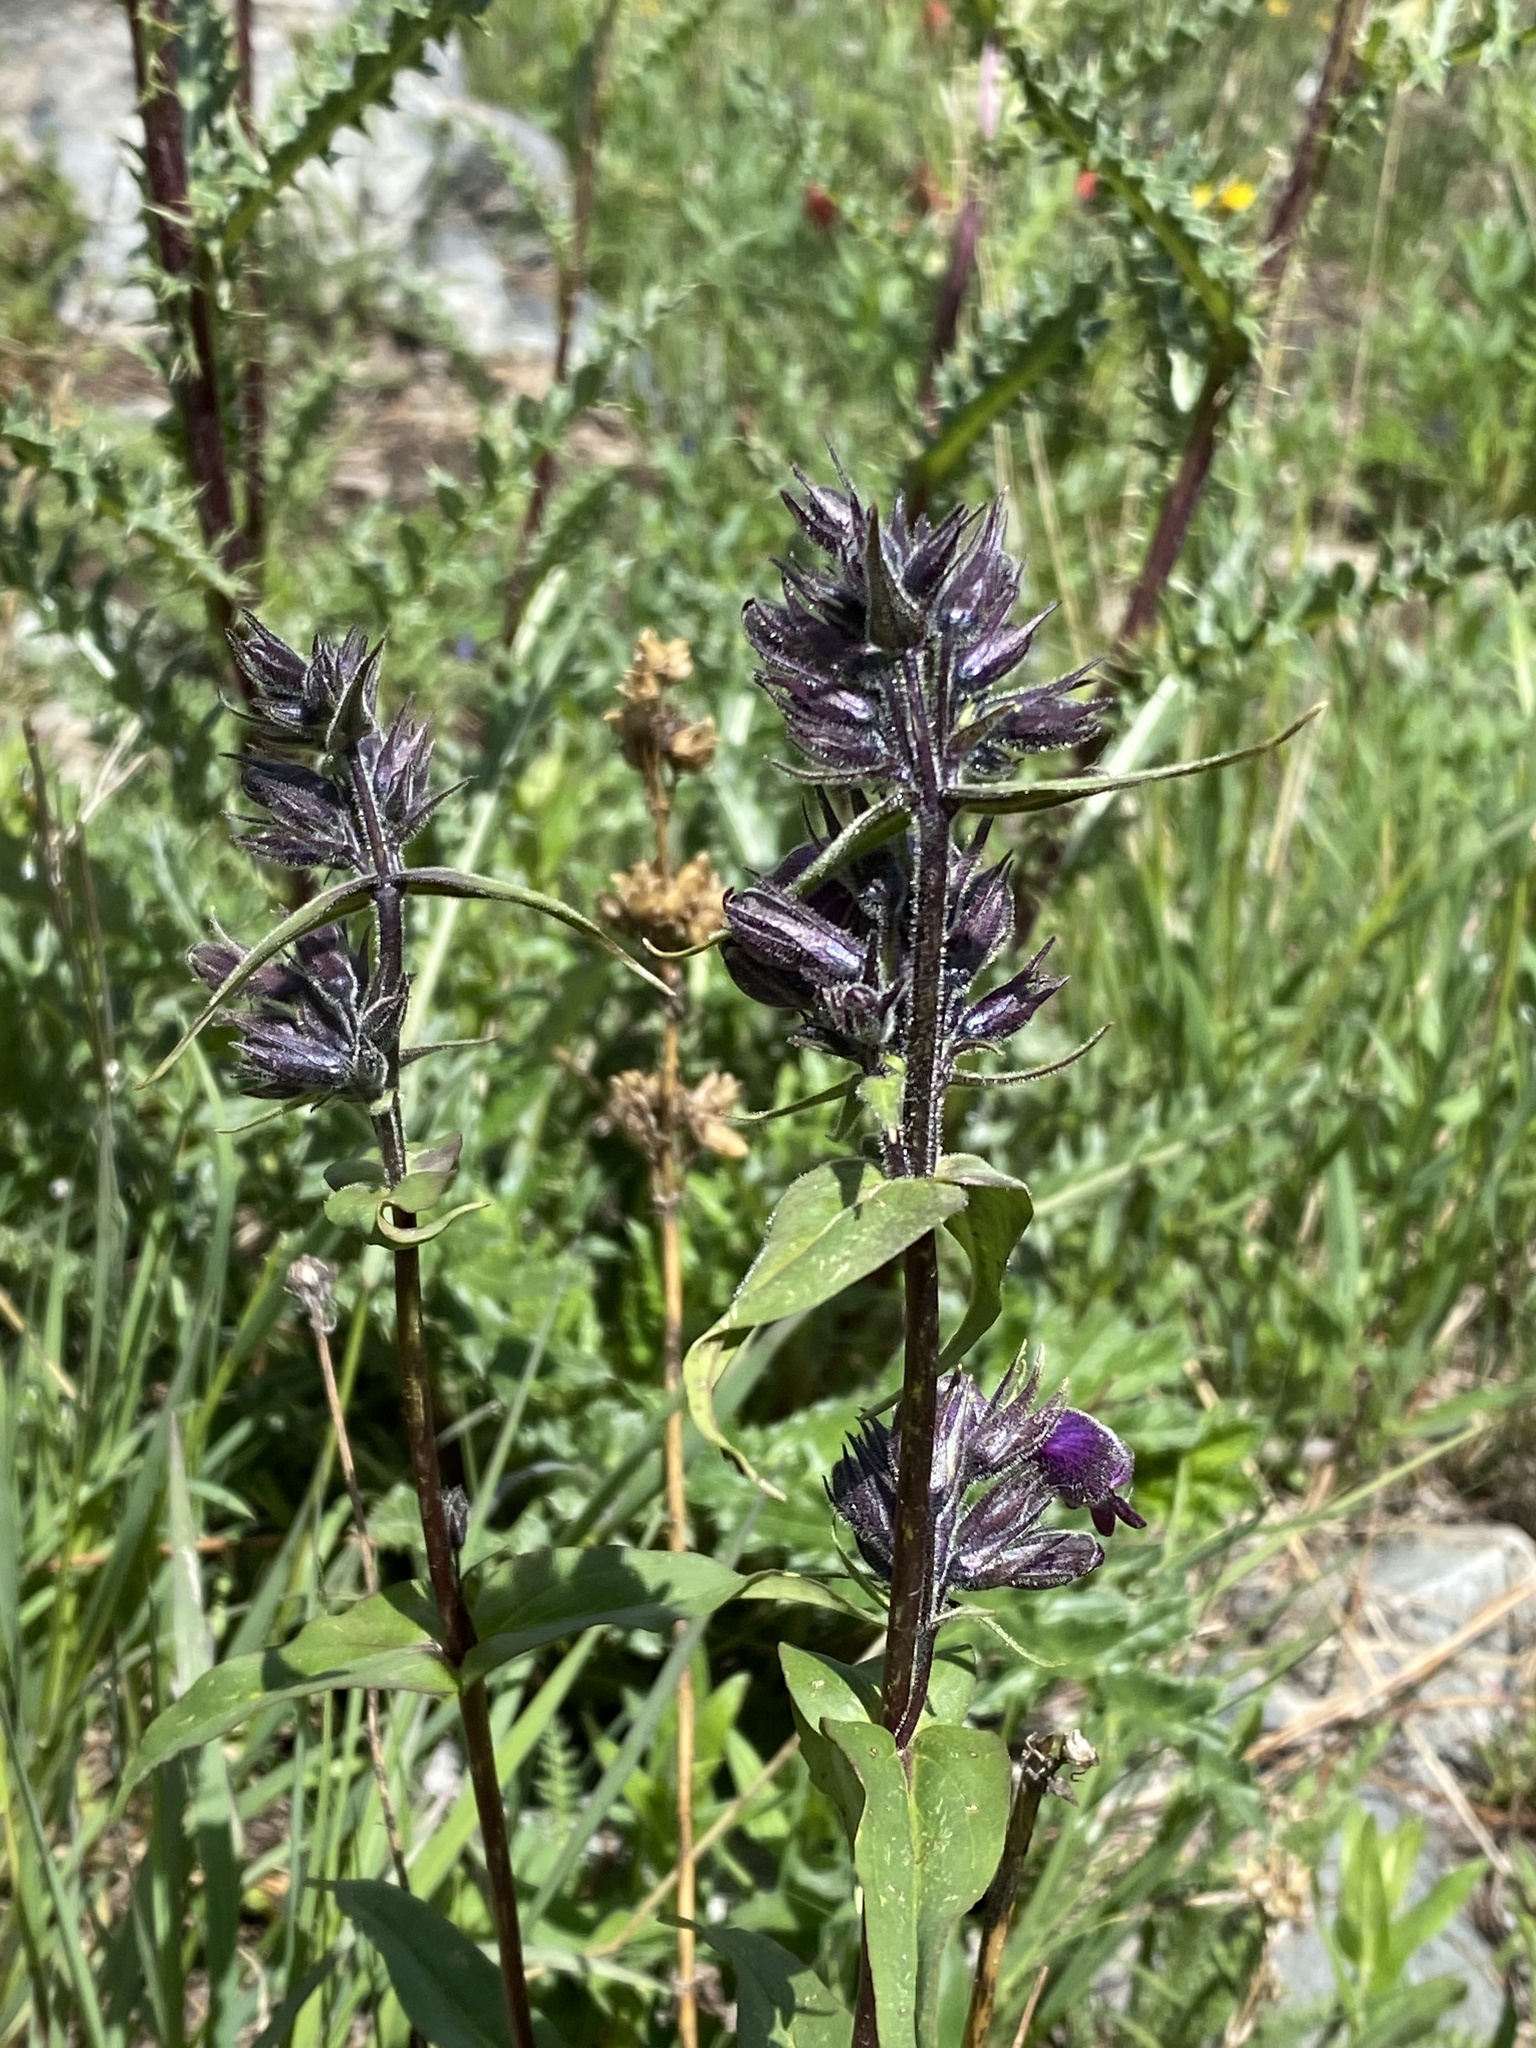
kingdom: Plantae
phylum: Tracheophyta
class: Magnoliopsida
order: Lamiales
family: Plantaginaceae
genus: Penstemon
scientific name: Penstemon whippleanus
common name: Whipple's penstemon
